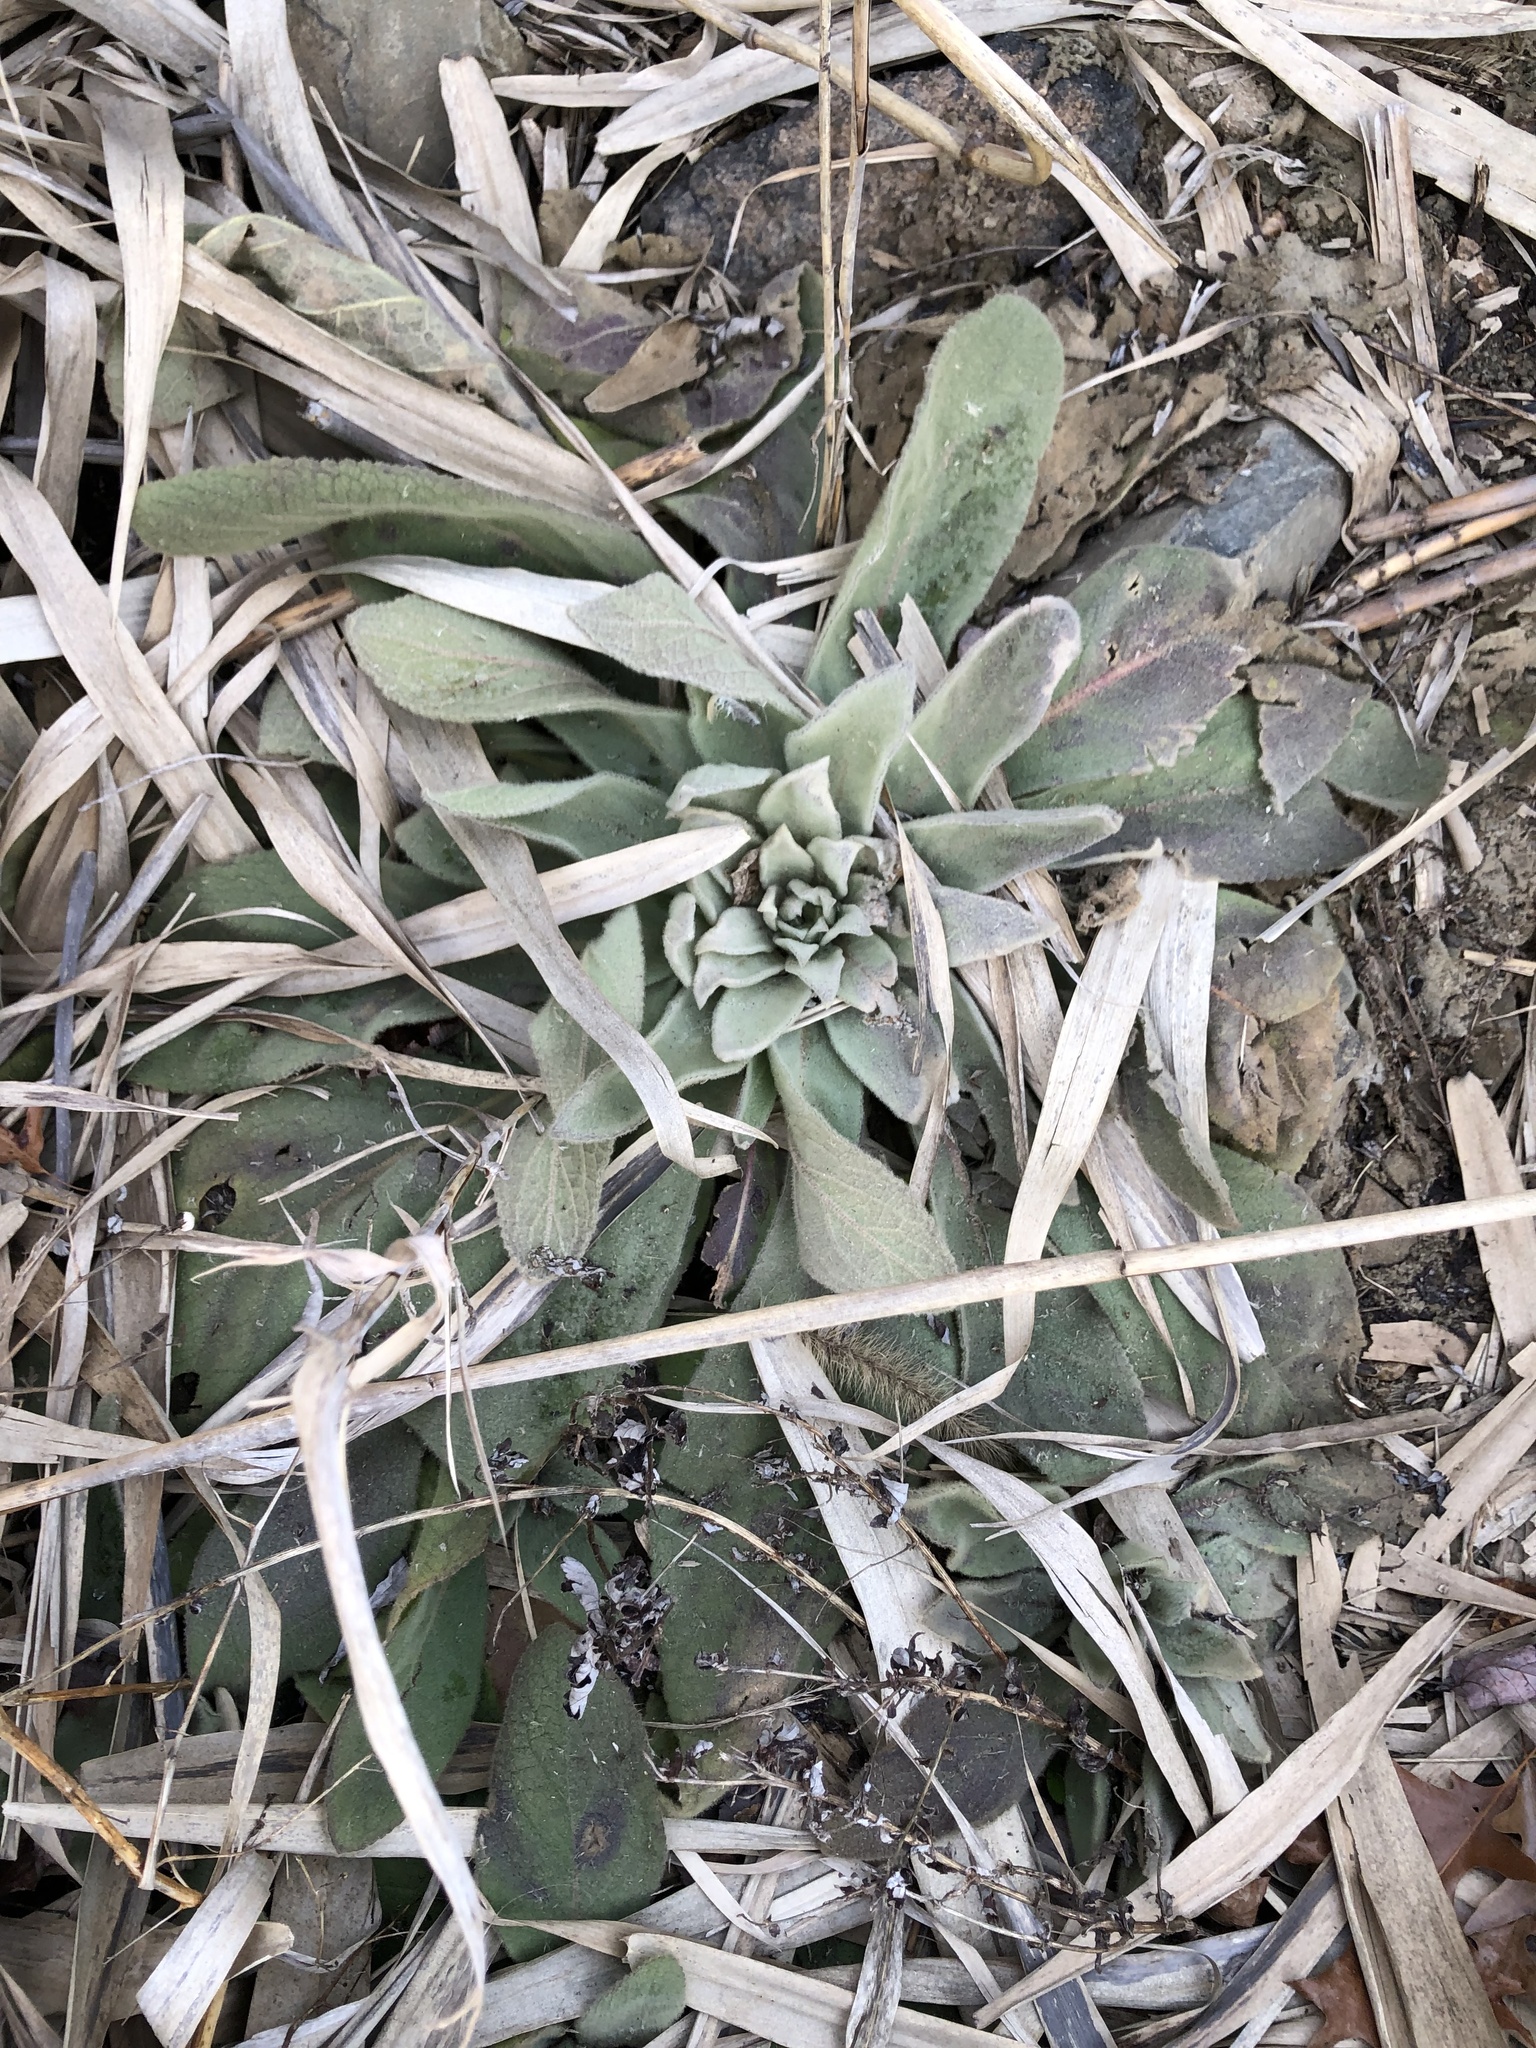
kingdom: Plantae
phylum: Tracheophyta
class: Magnoliopsida
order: Lamiales
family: Scrophulariaceae
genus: Verbascum
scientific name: Verbascum thapsus
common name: Common mullein
